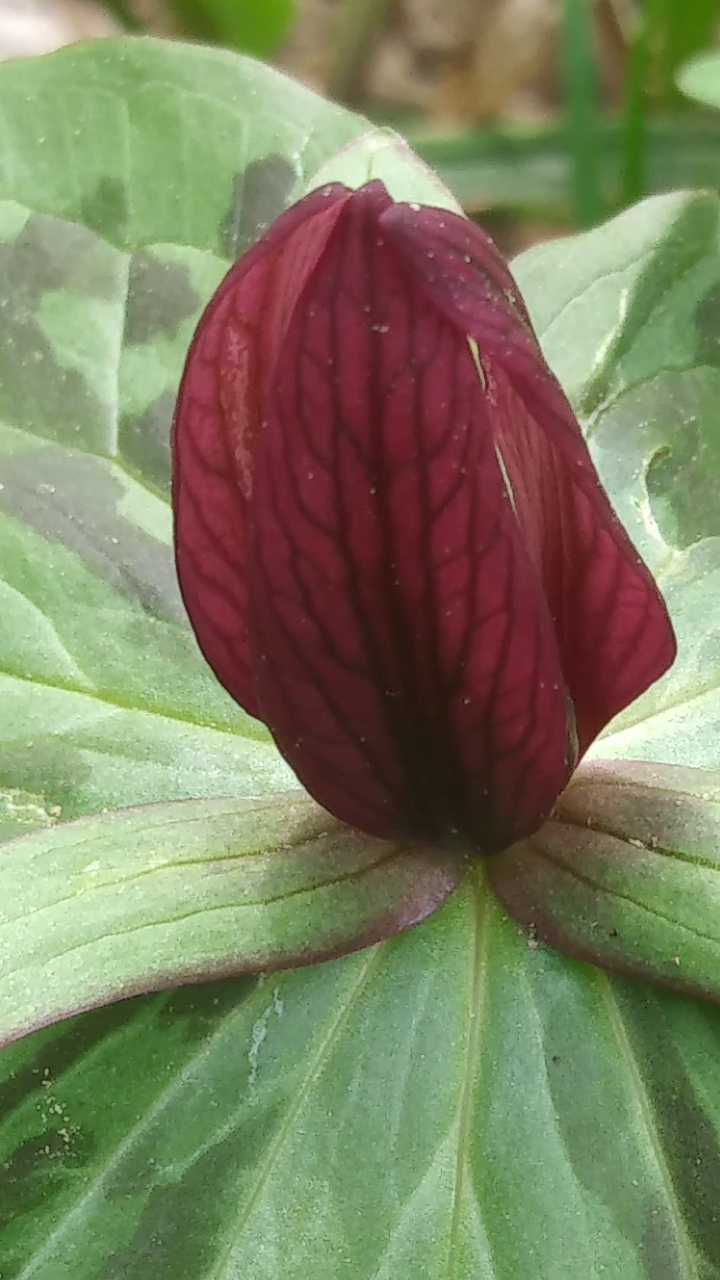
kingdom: Plantae
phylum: Tracheophyta
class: Liliopsida
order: Liliales
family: Melanthiaceae
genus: Trillium
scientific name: Trillium sessile
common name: Sessile trillium
